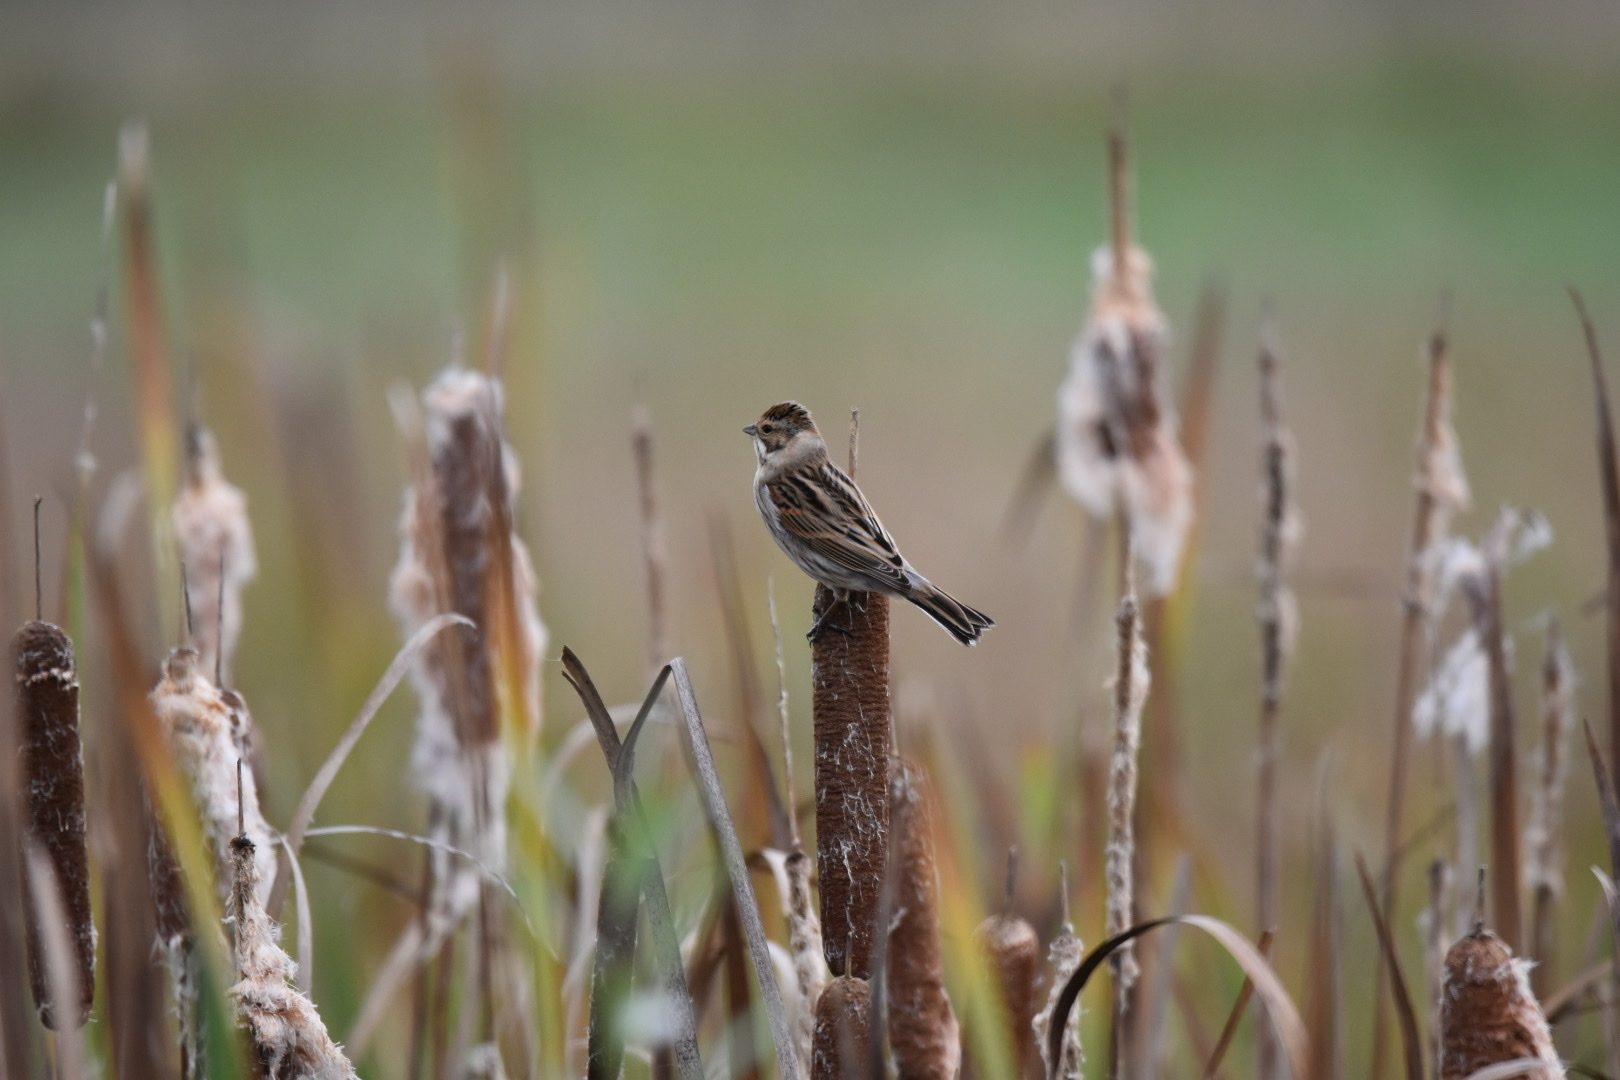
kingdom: Animalia
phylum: Chordata
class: Aves
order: Passeriformes
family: Emberizidae
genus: Emberiza
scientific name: Emberiza schoeniclus
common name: Reed bunting
